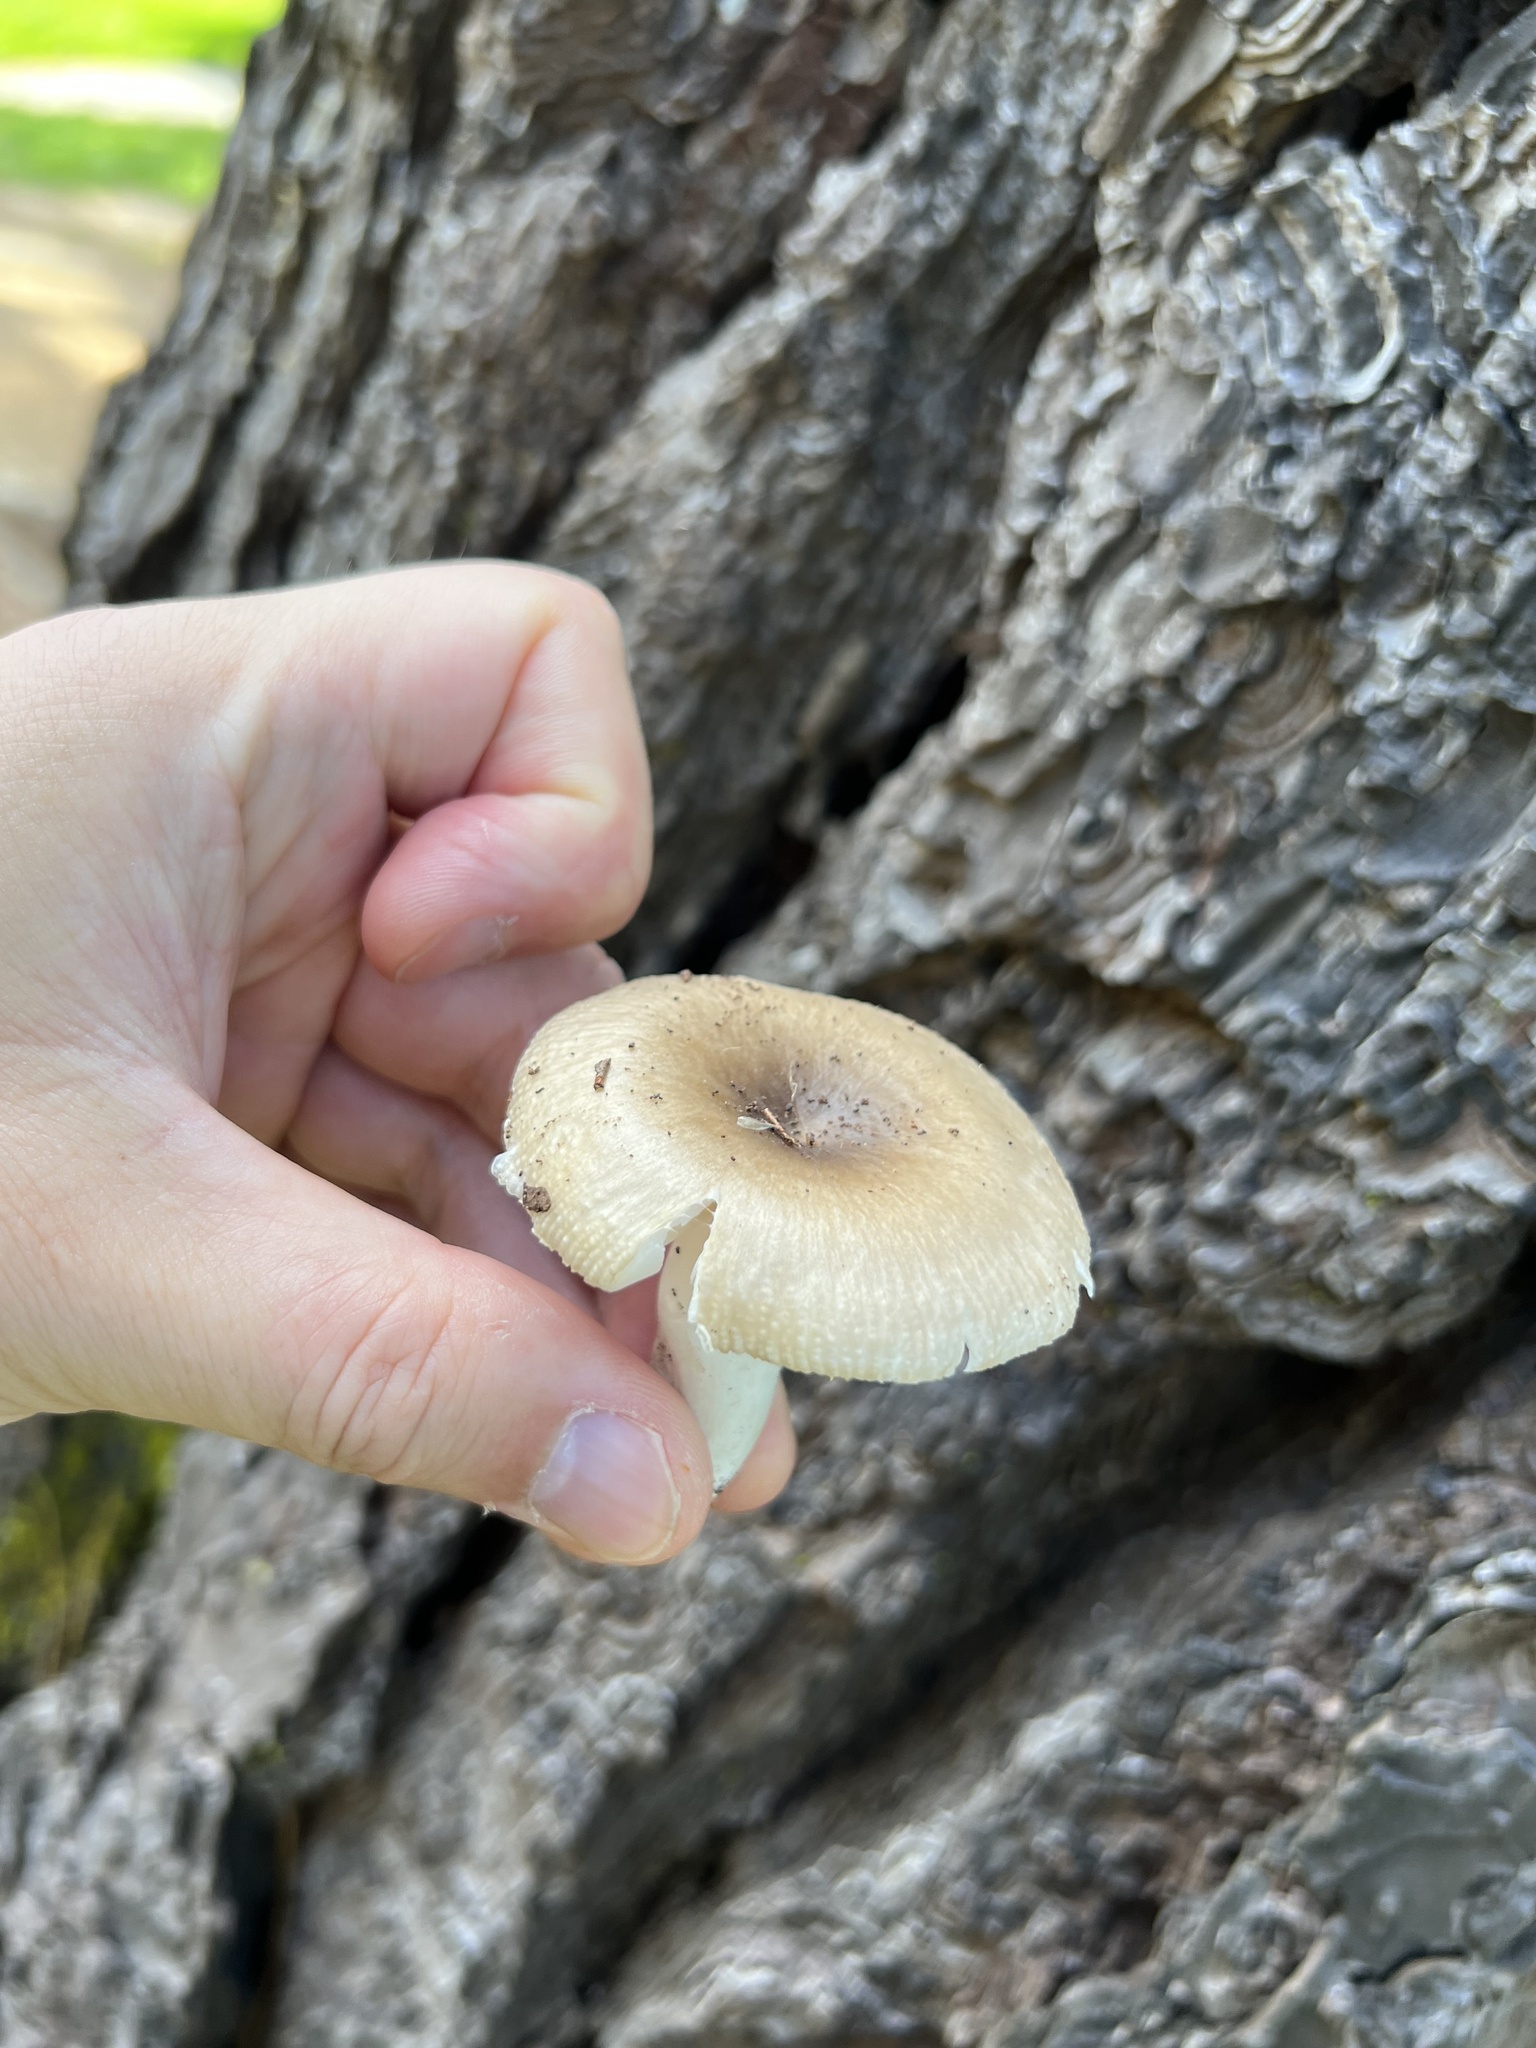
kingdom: Fungi
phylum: Basidiomycota
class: Agaricomycetes
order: Russulales
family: Russulaceae
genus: Russula
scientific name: Russula amoenolens
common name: Camembert brittlegill
